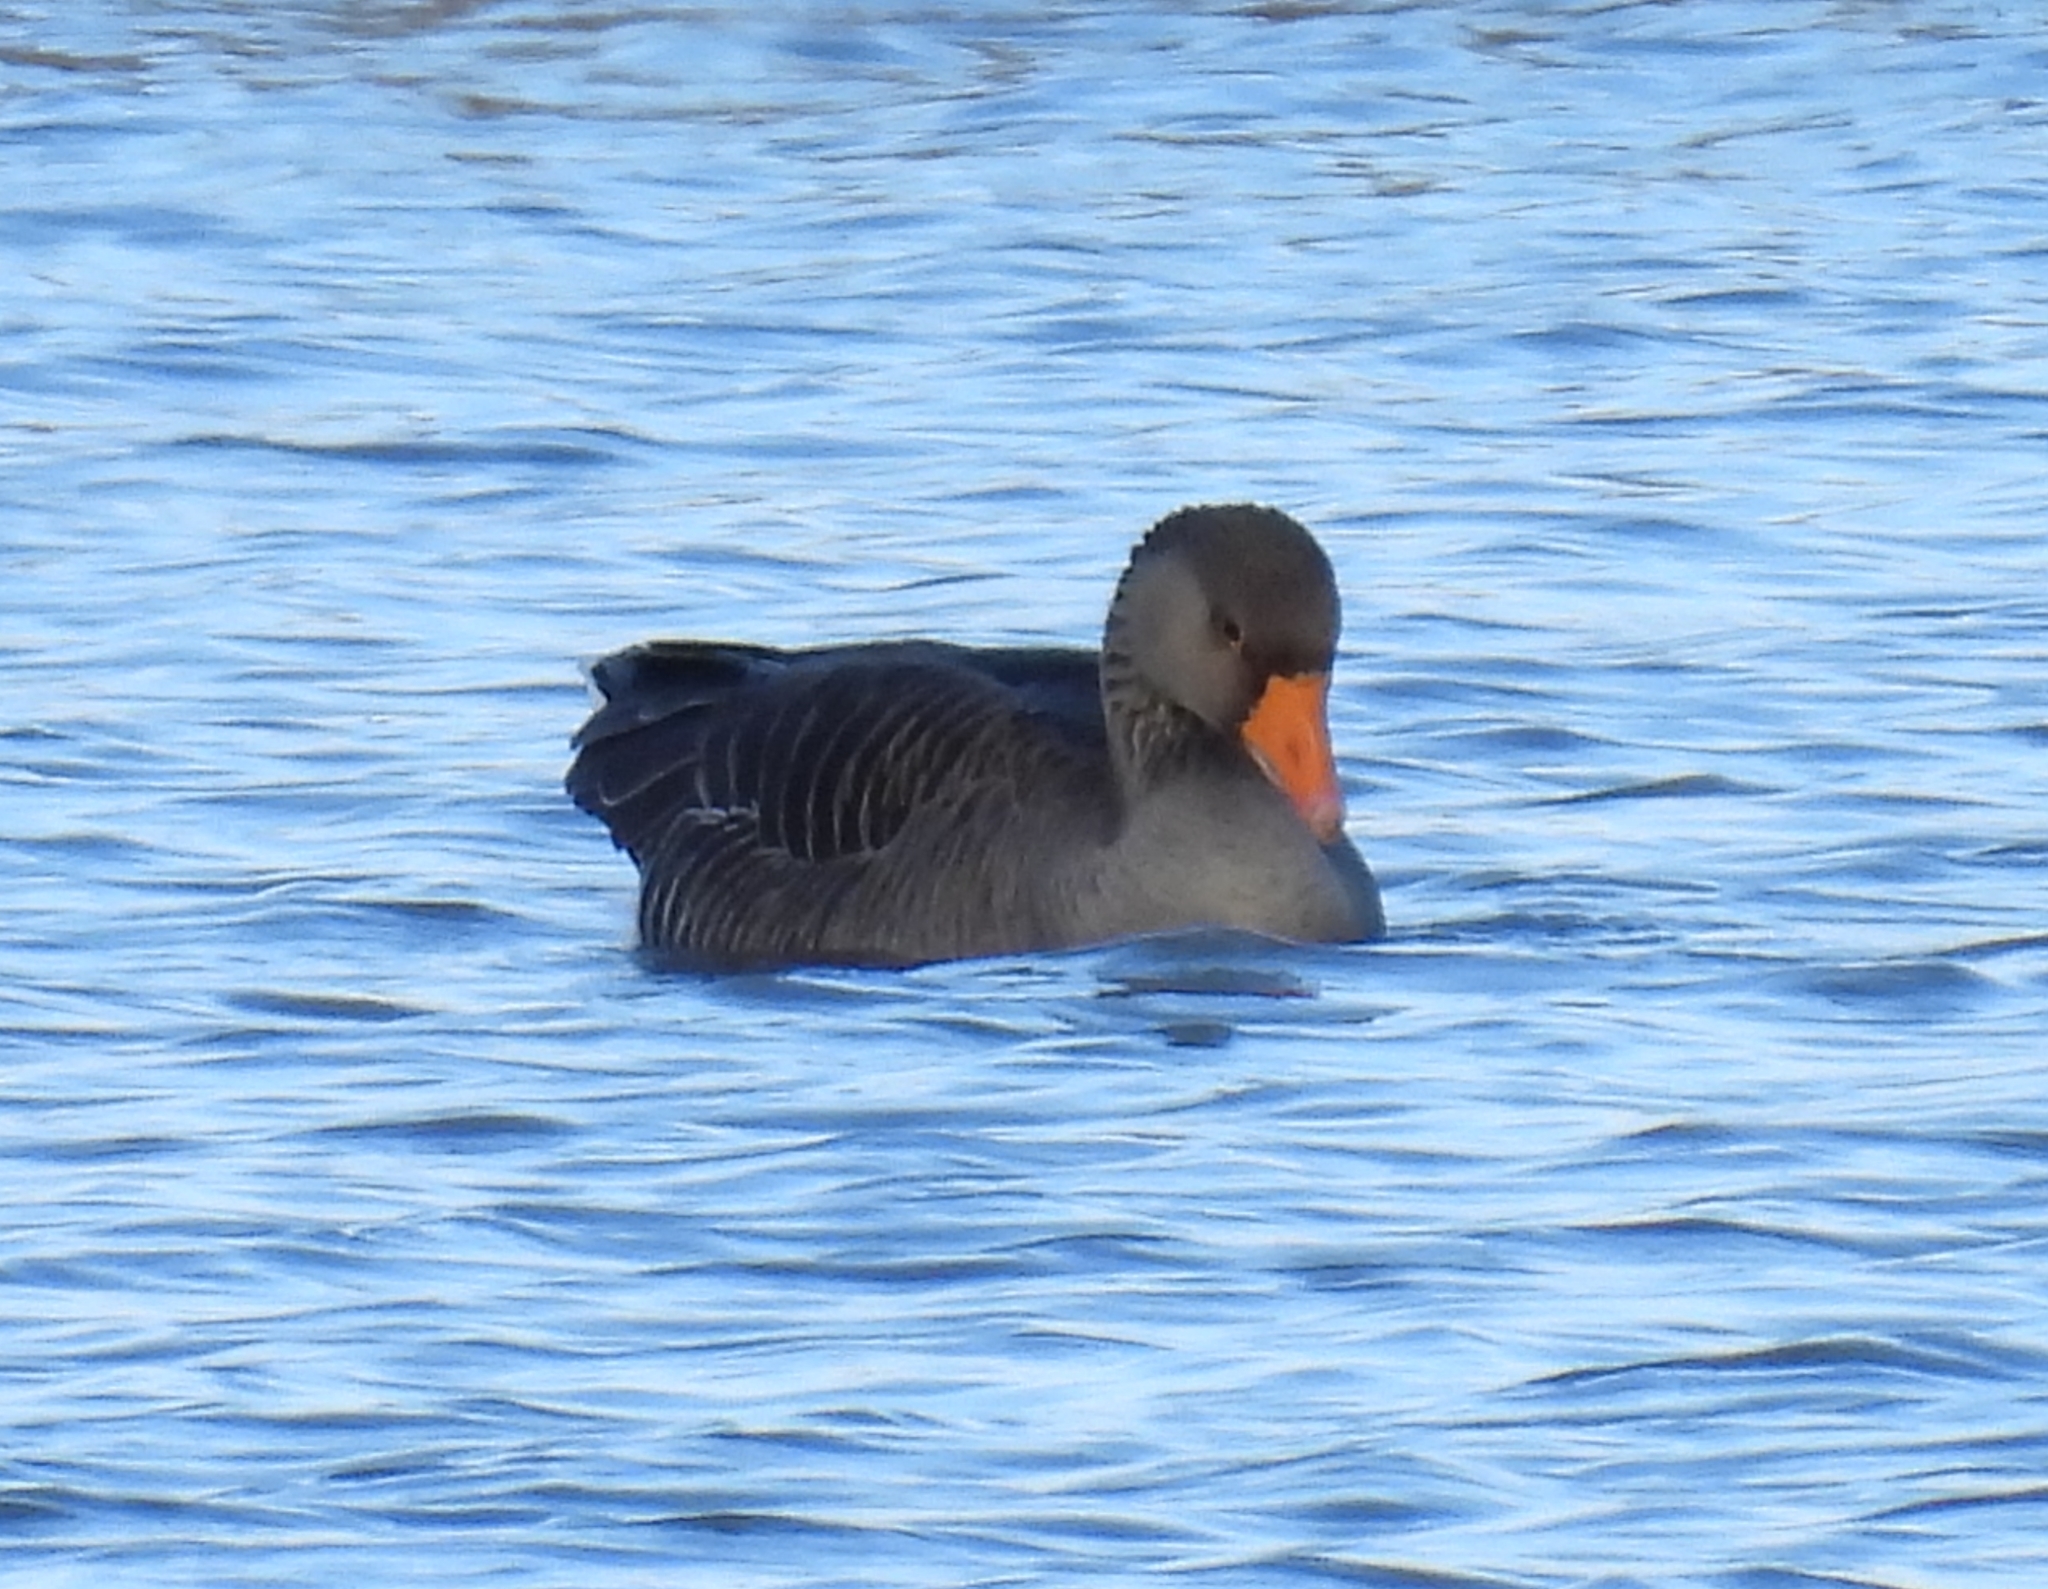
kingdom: Animalia
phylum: Chordata
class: Aves
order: Anseriformes
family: Anatidae
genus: Anser
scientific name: Anser anser
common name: Greylag goose
